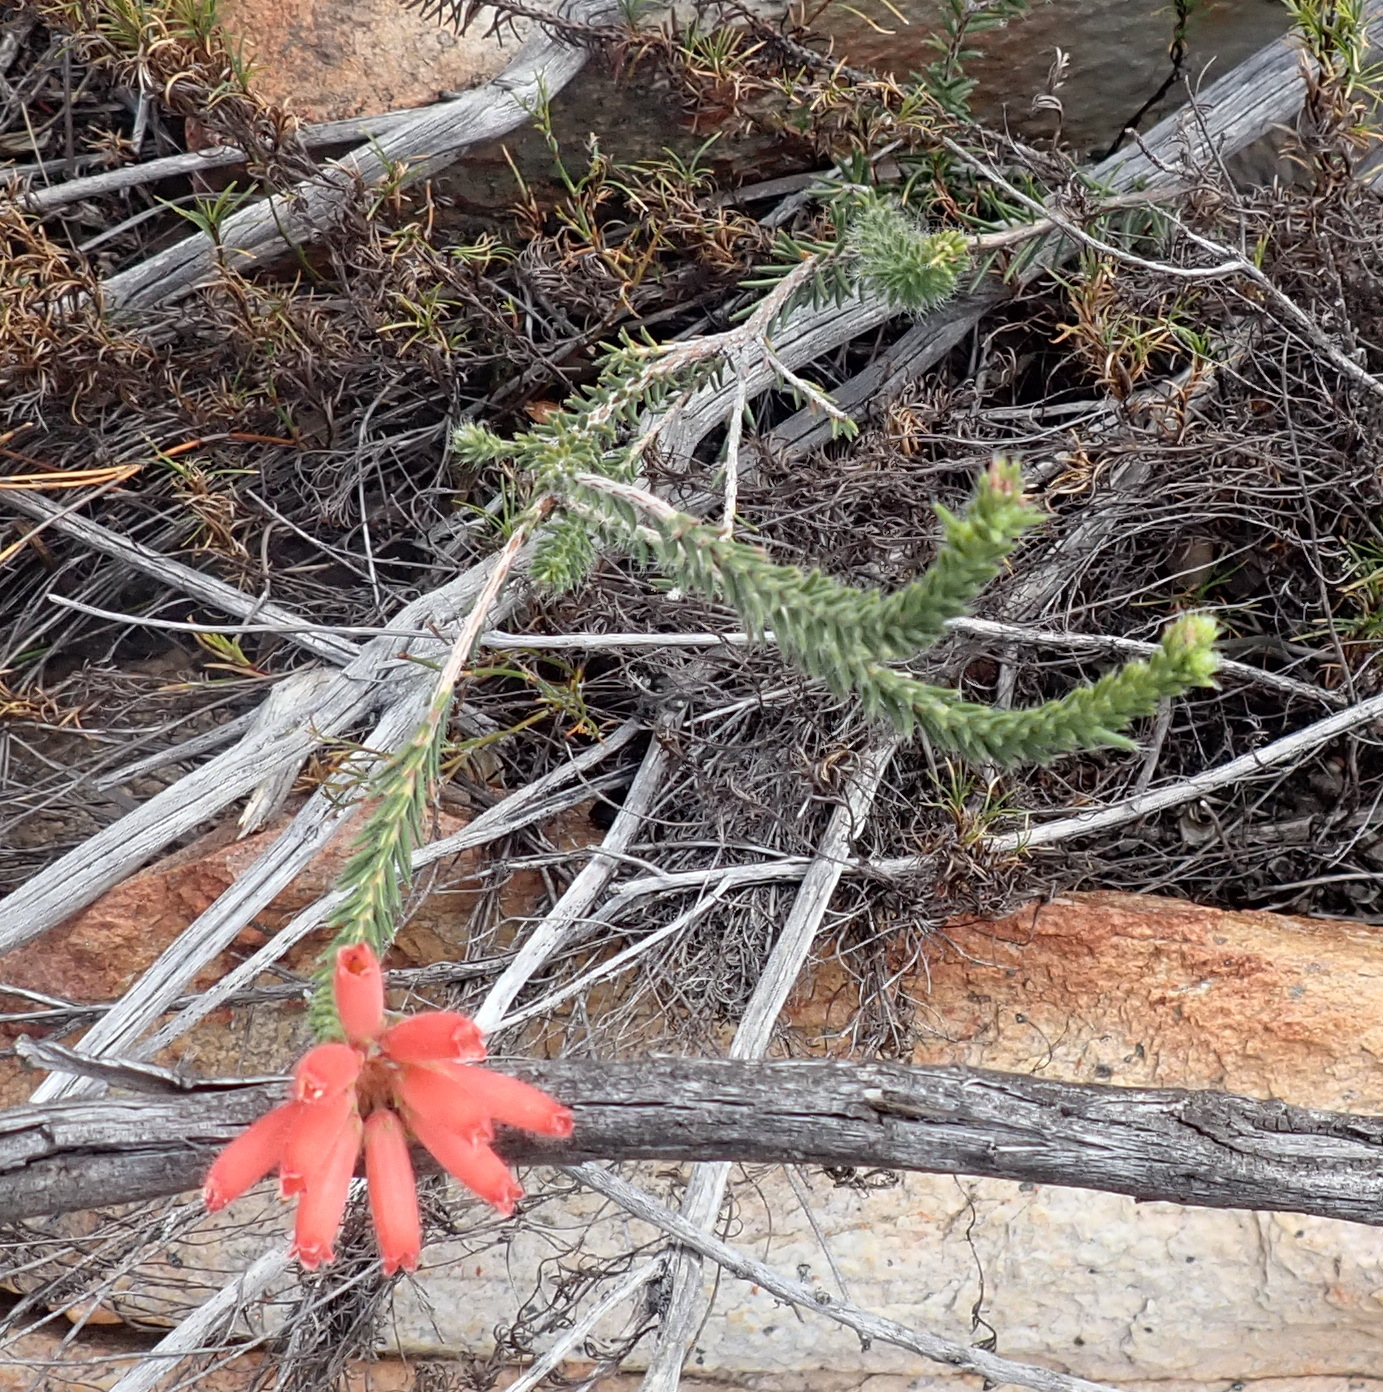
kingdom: Plantae
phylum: Tracheophyta
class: Magnoliopsida
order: Ericales
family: Ericaceae
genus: Erica
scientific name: Erica cerinthoides
